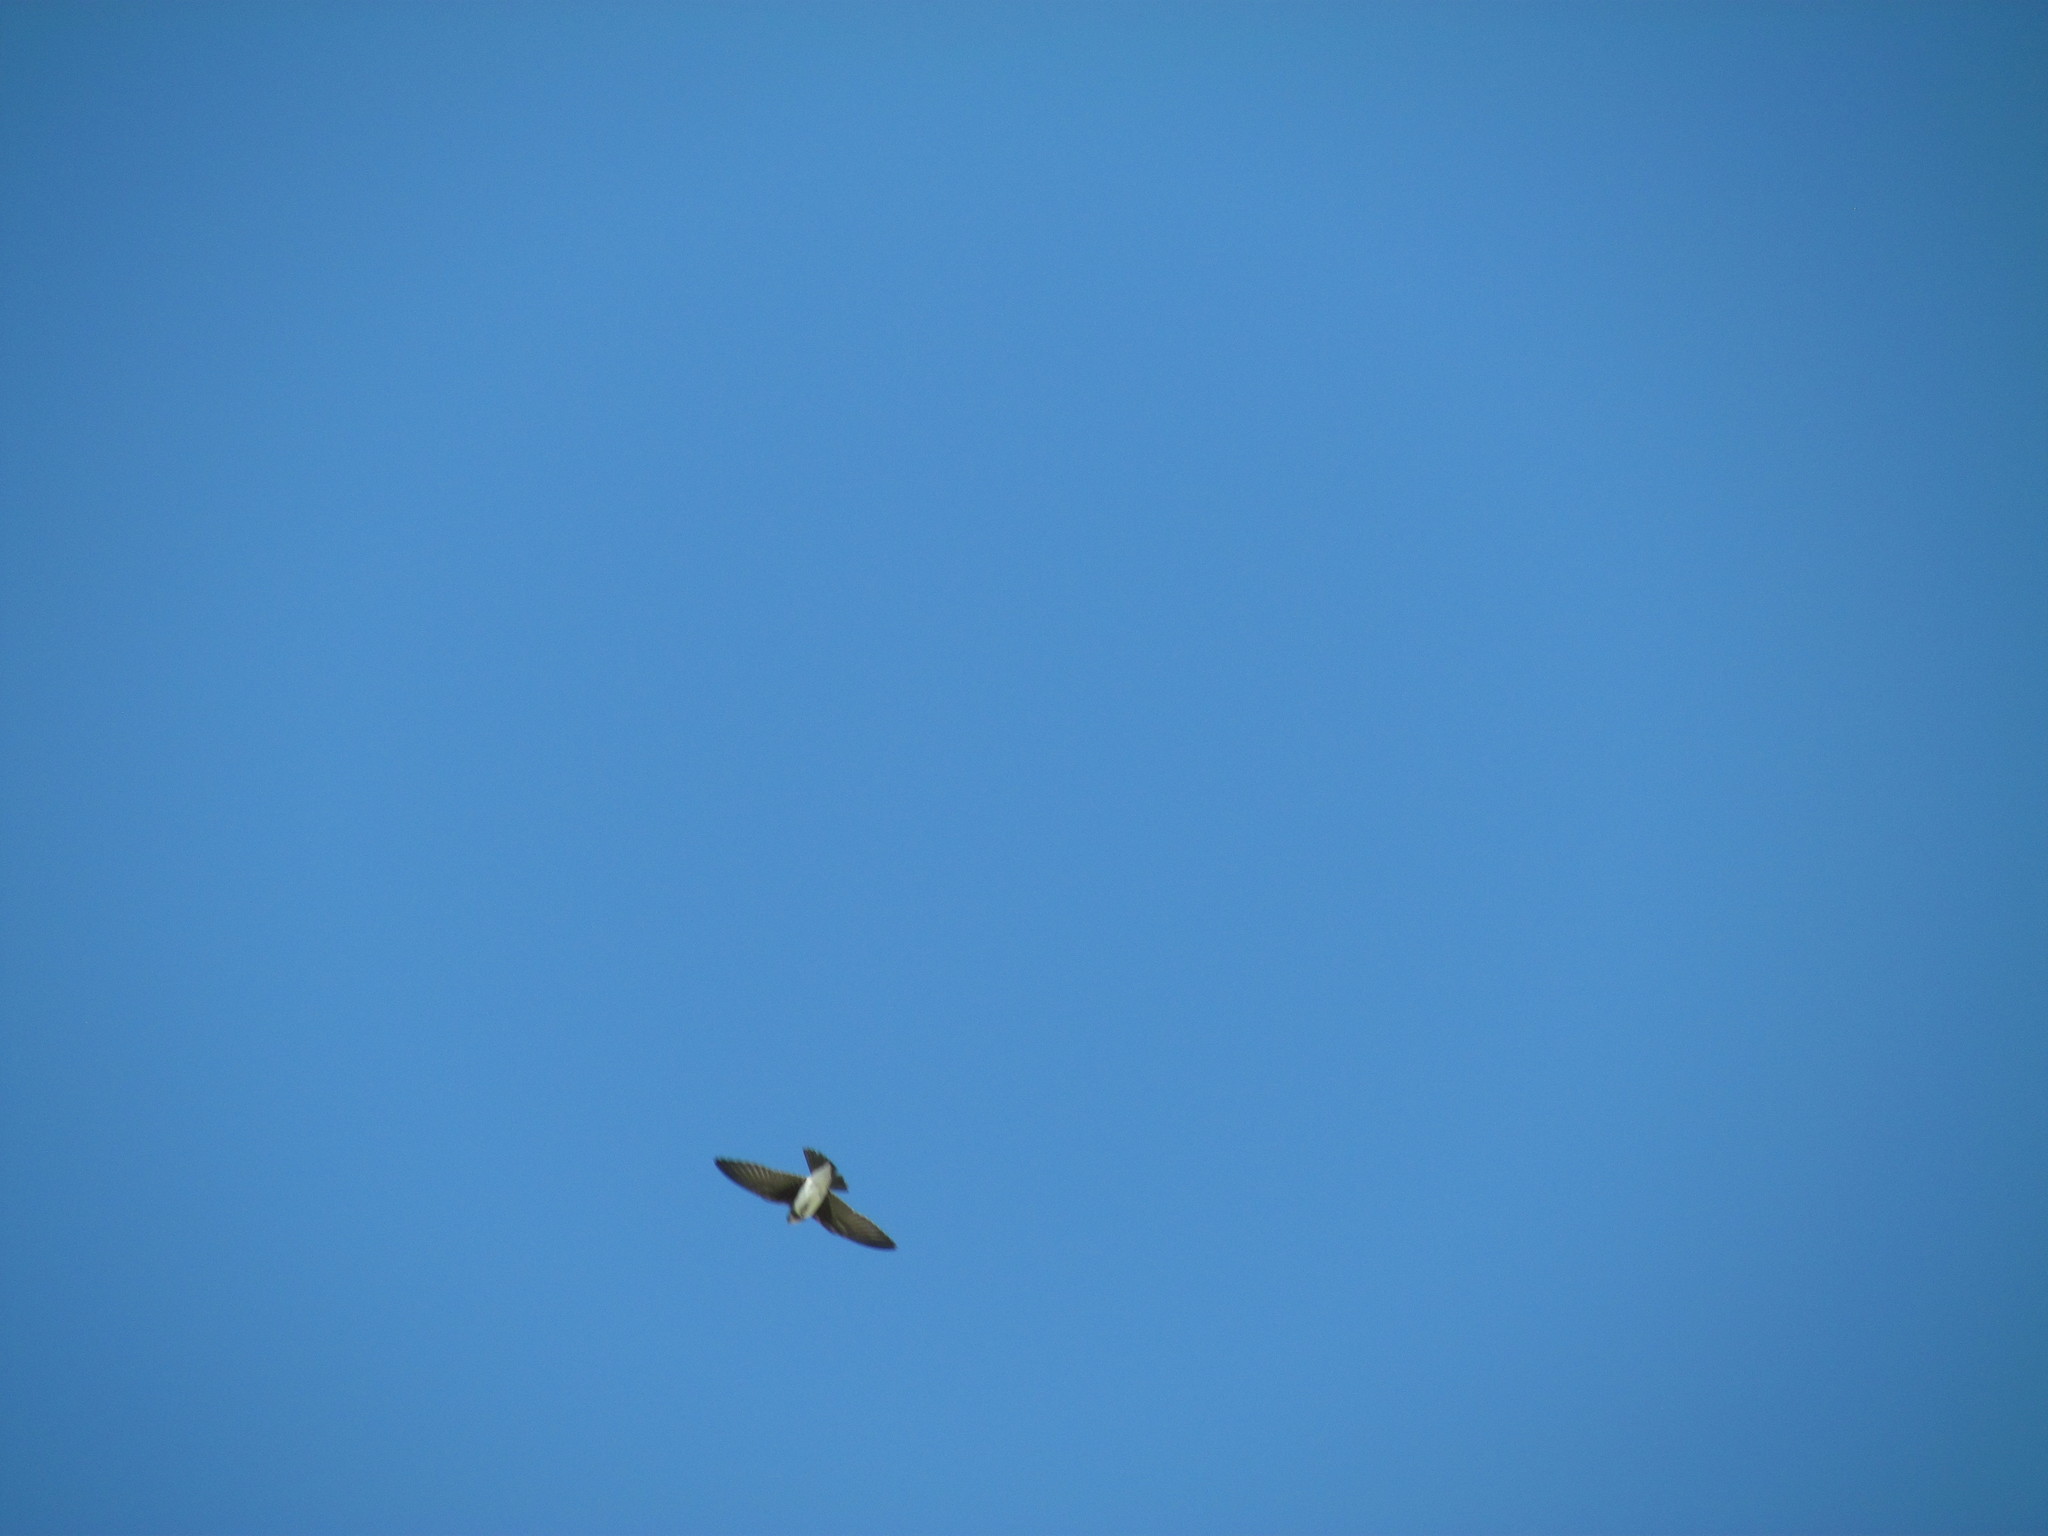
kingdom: Animalia
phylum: Chordata
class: Aves
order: Passeriformes
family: Hirundinidae
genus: Progne
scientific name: Progne tapera
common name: Brown-chested martin
